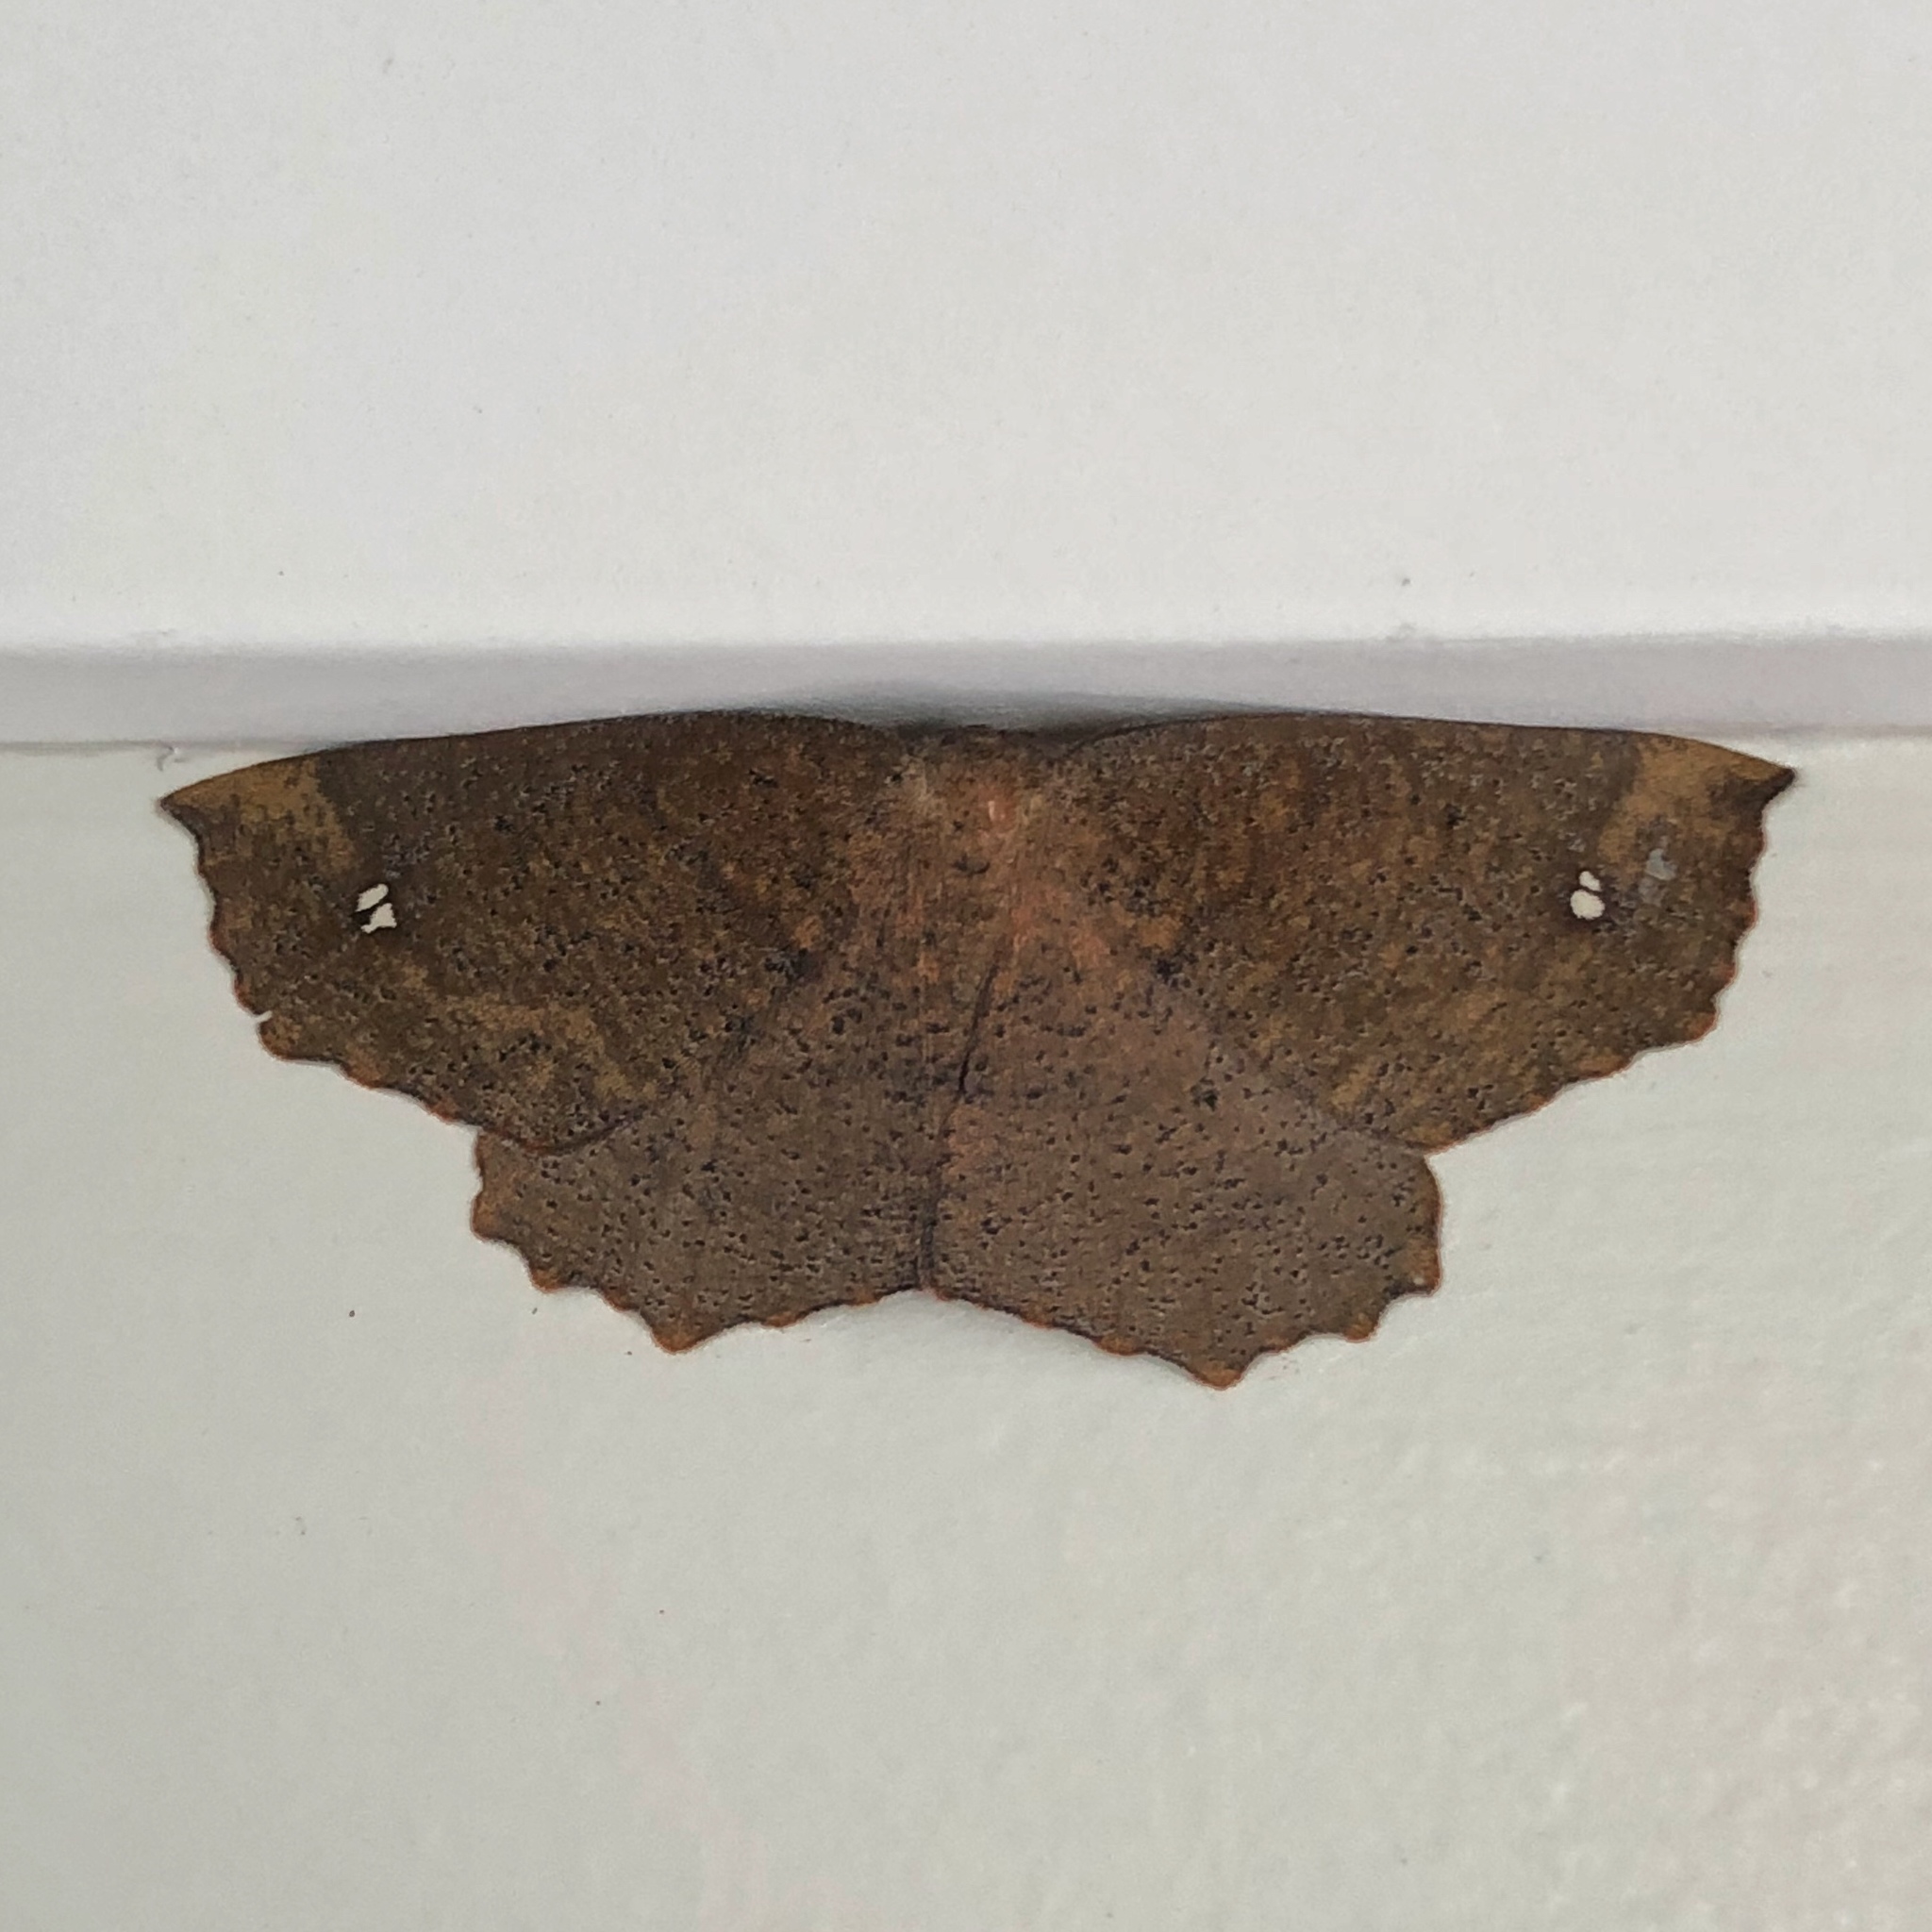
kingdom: Animalia
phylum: Arthropoda
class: Insecta
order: Lepidoptera
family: Geometridae
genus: Xyridacma
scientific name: Xyridacma ustaria
